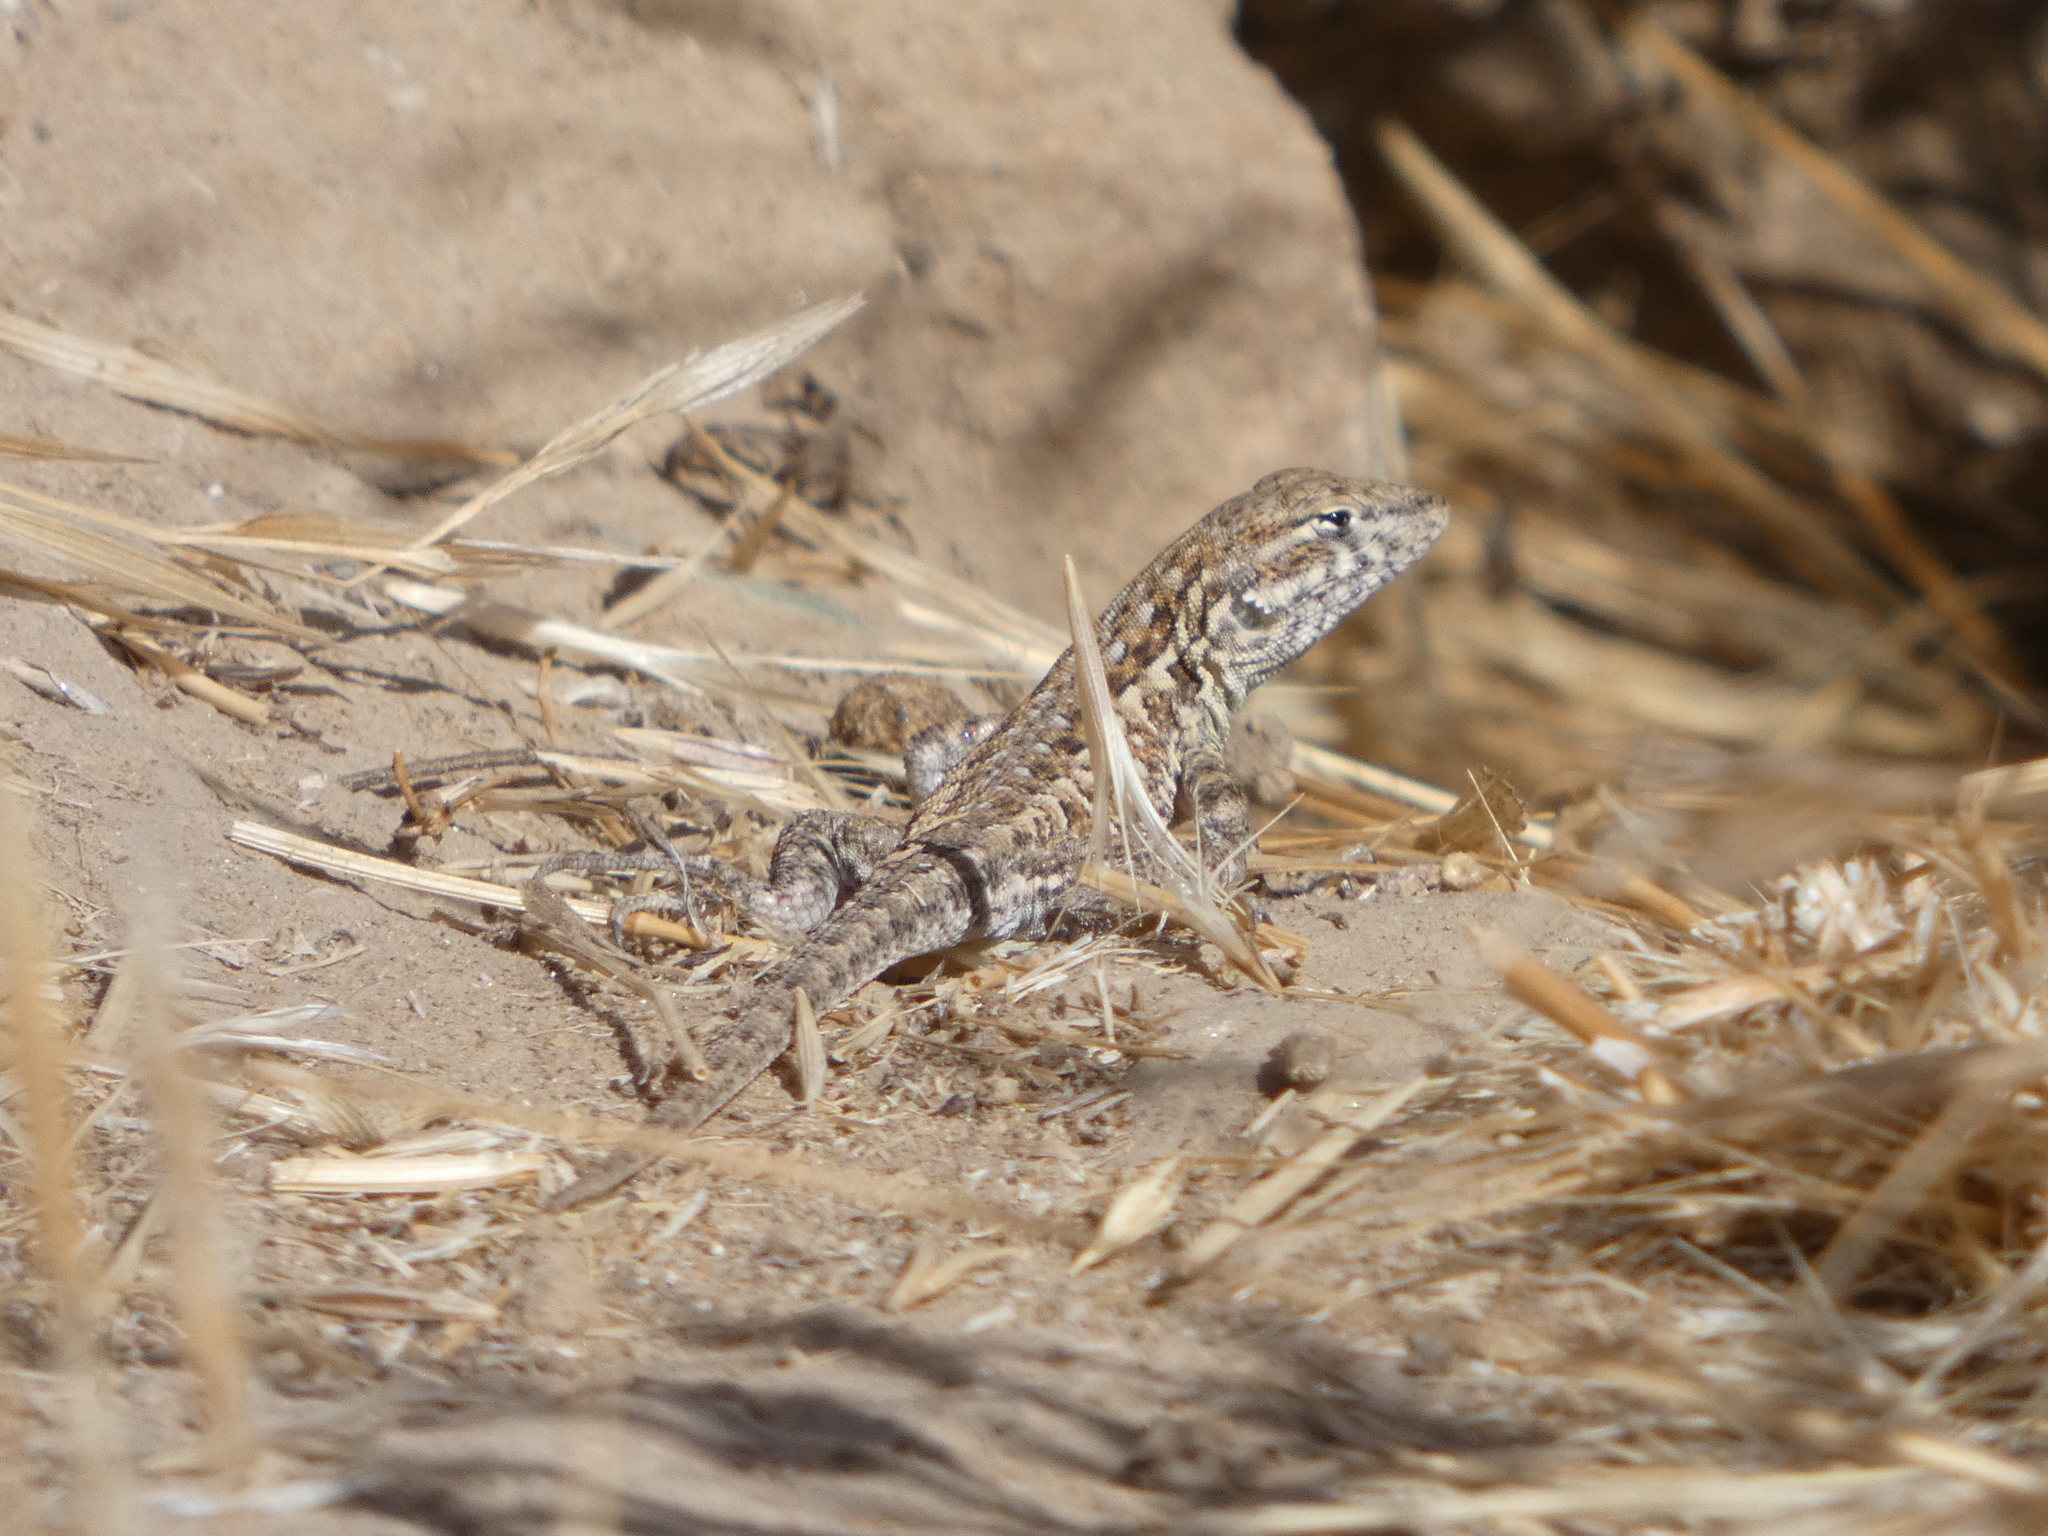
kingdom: Animalia
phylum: Chordata
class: Squamata
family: Phrynosomatidae
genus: Uta
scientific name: Uta stansburiana
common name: Side-blotched lizard
